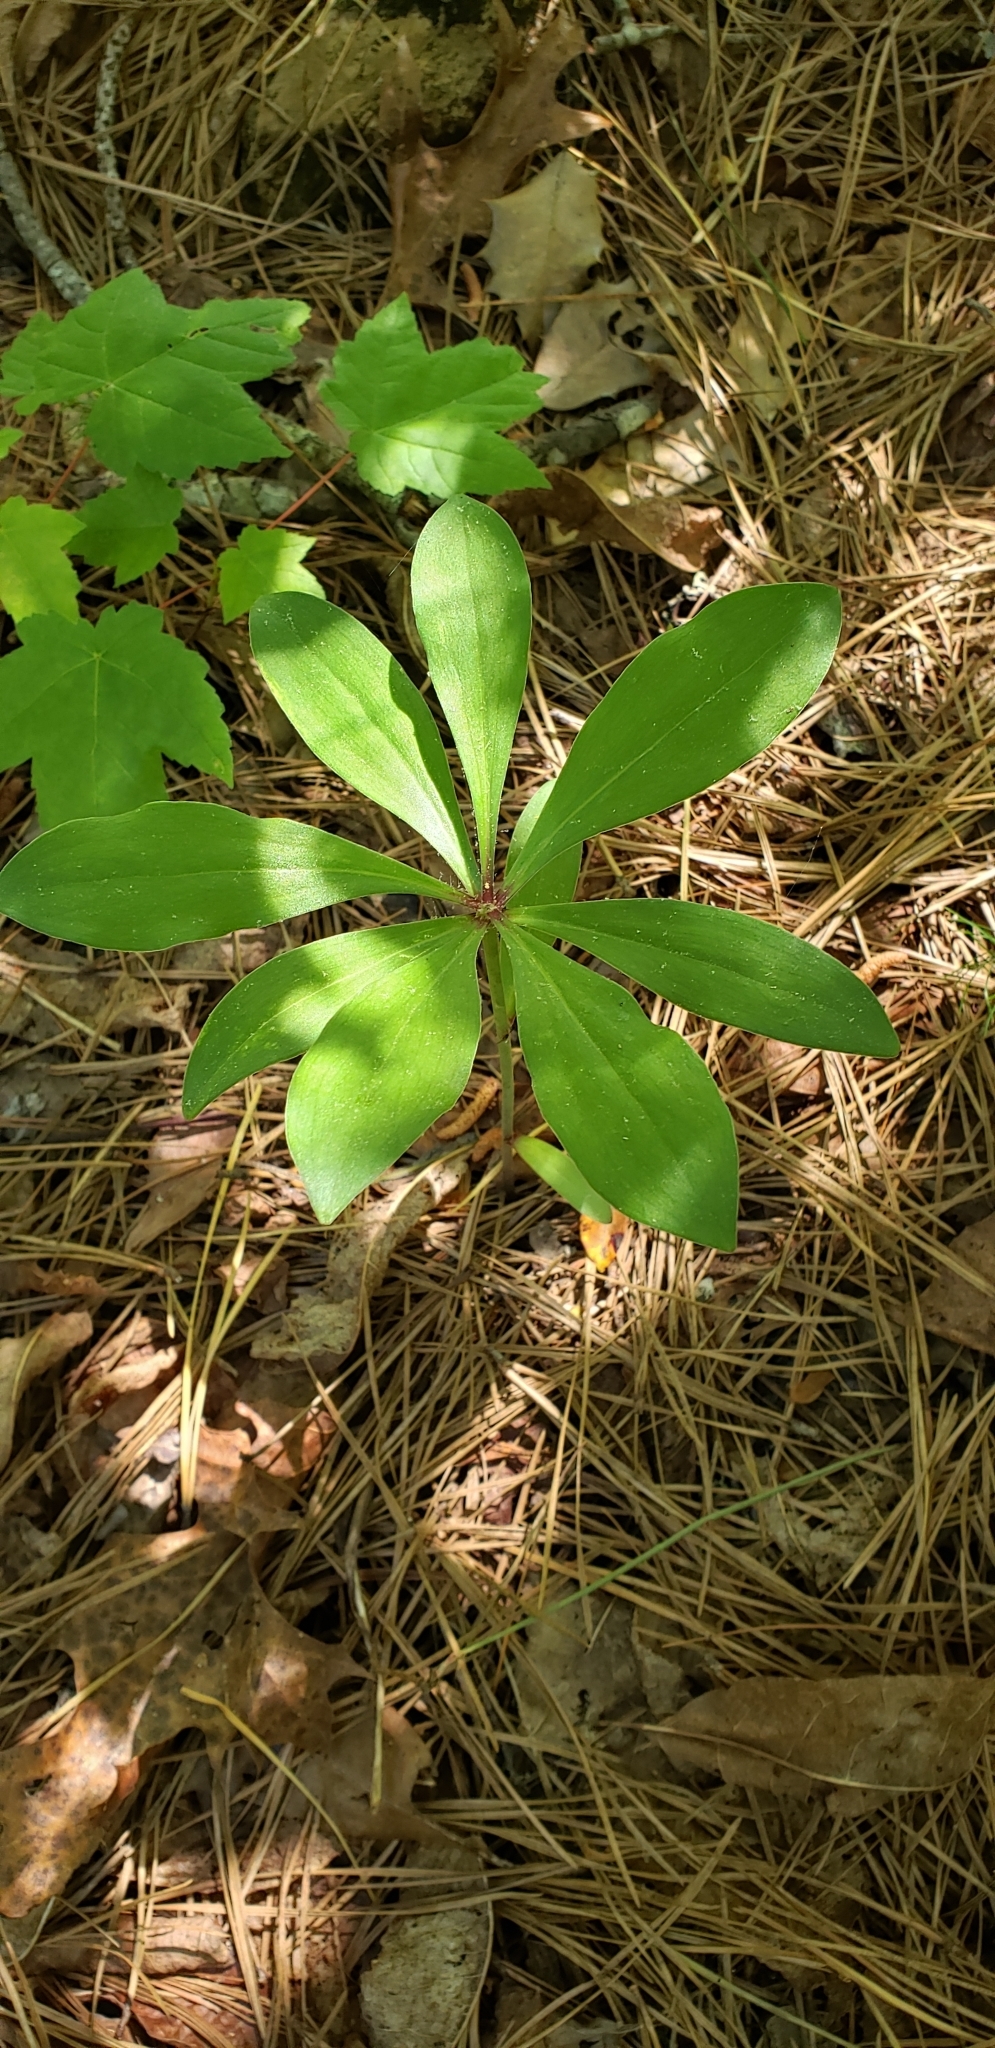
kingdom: Plantae
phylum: Tracheophyta
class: Liliopsida
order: Liliales
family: Liliaceae
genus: Medeola
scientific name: Medeola virginiana
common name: Indian cucumber-root
